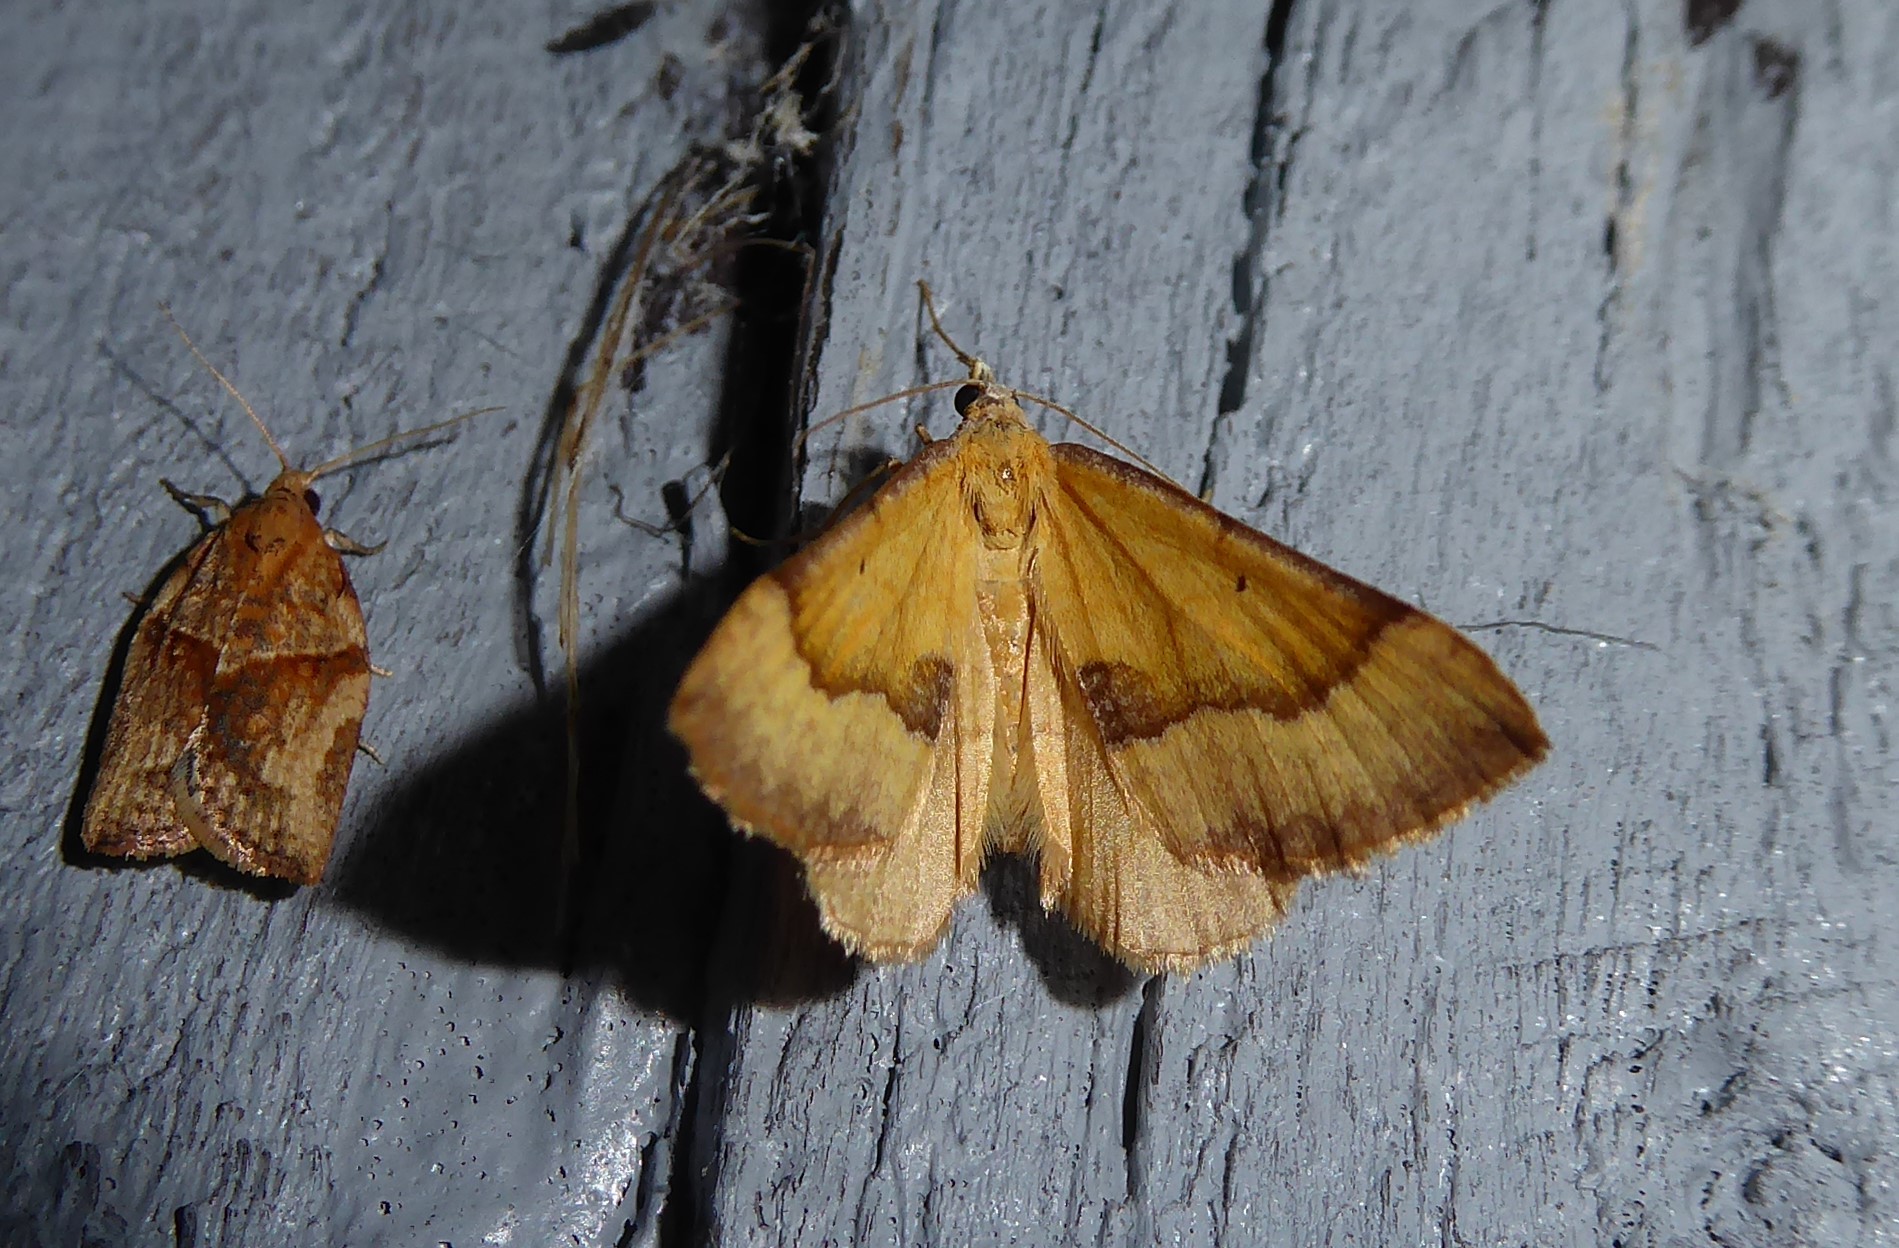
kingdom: Animalia
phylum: Arthropoda
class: Insecta
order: Lepidoptera
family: Geometridae
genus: Anachloris
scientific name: Anachloris subochraria
